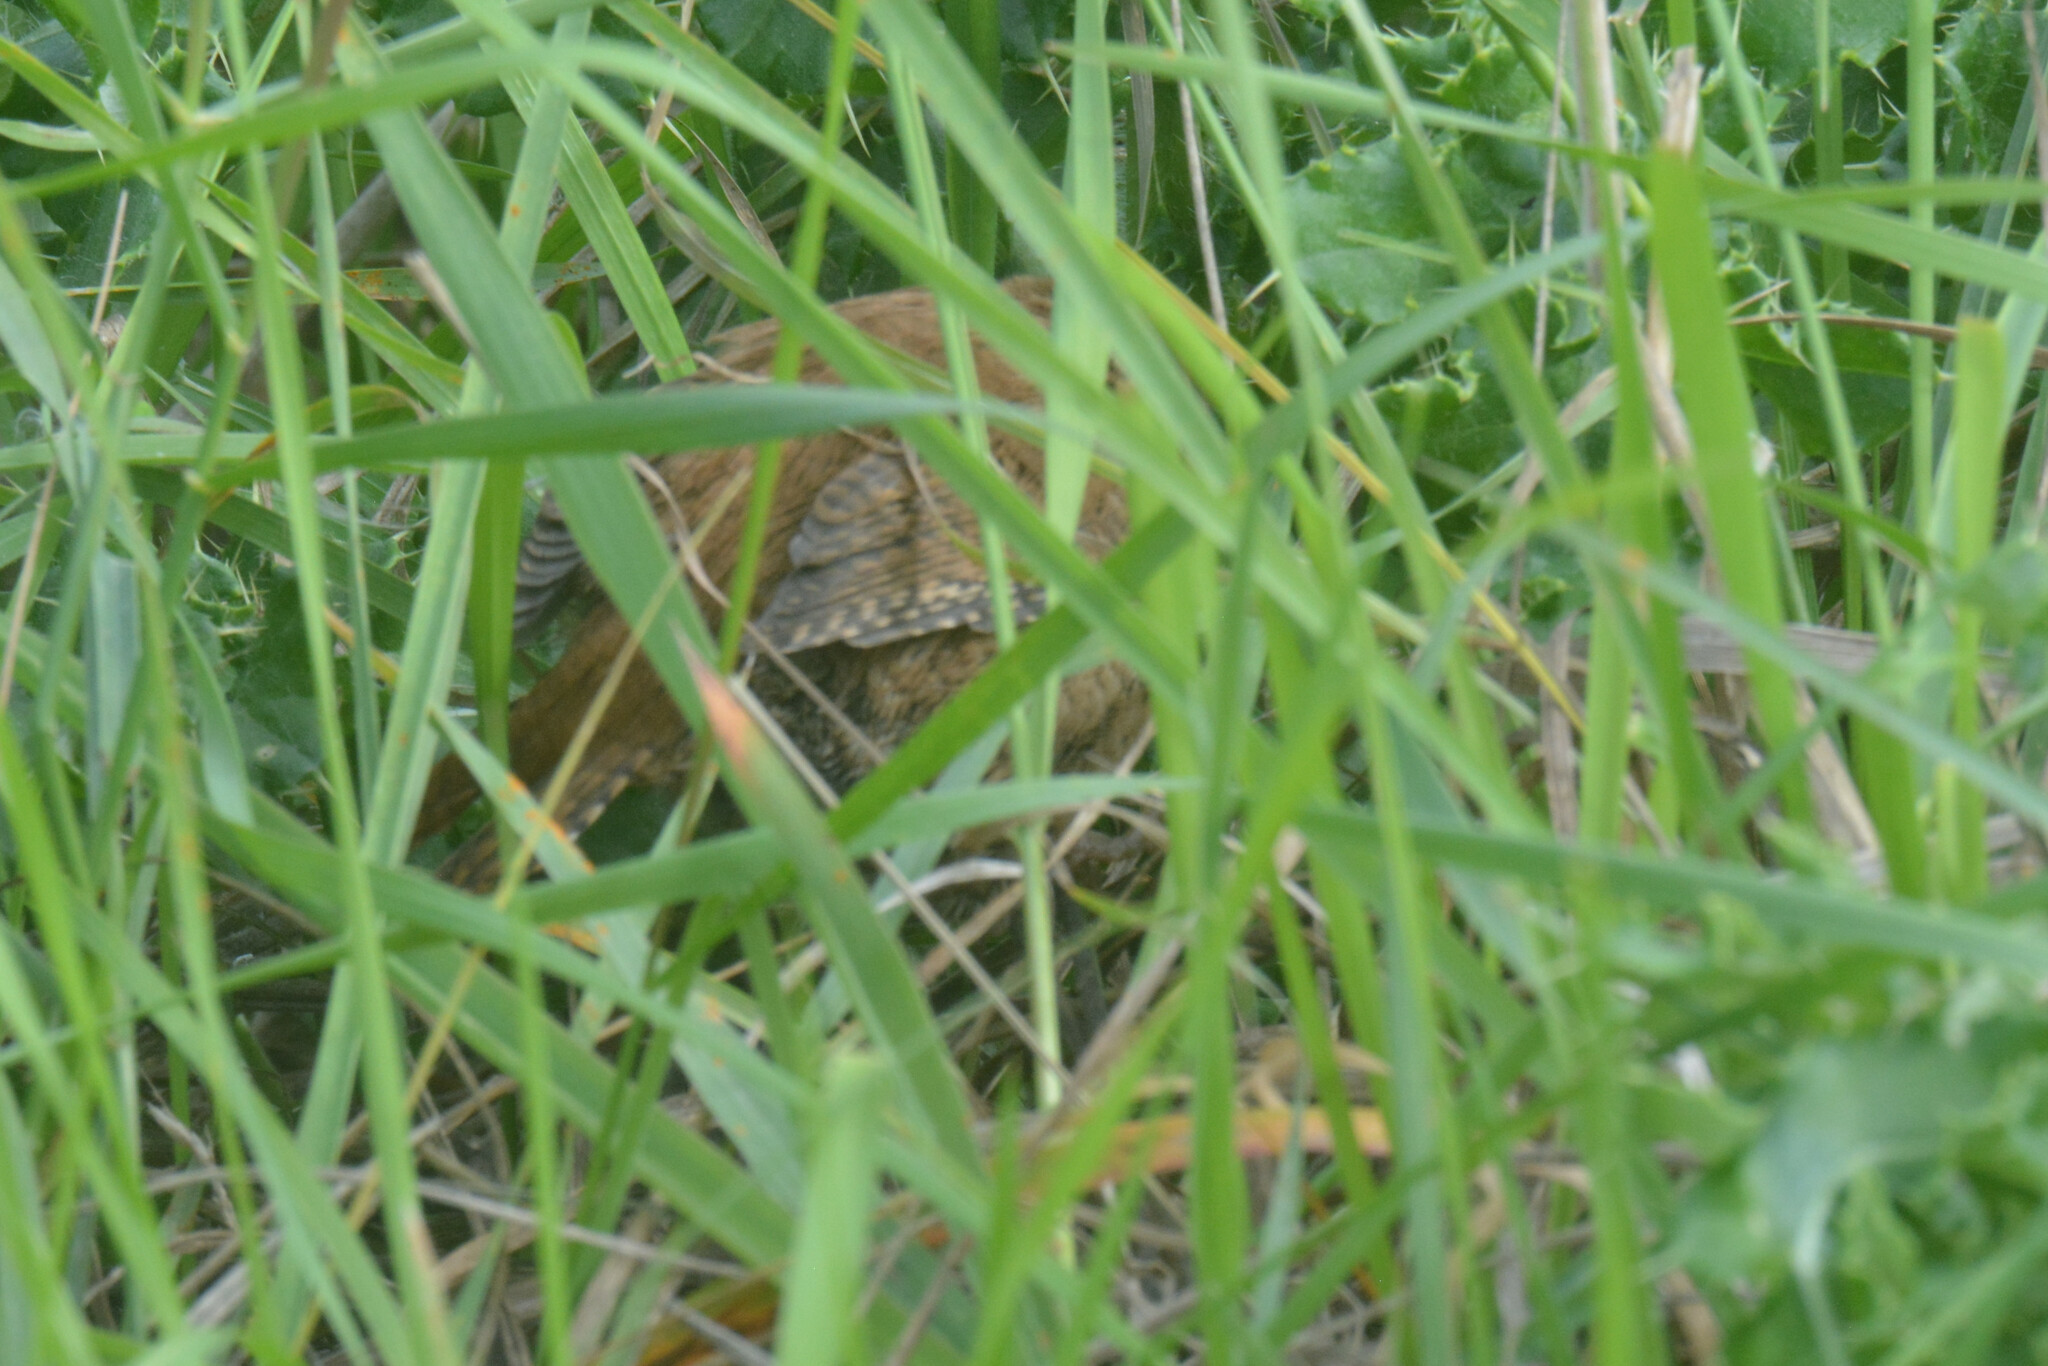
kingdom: Animalia
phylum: Chordata
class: Aves
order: Passeriformes
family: Troglodytidae
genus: Troglodytes
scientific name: Troglodytes troglodytes
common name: Eurasian wren
